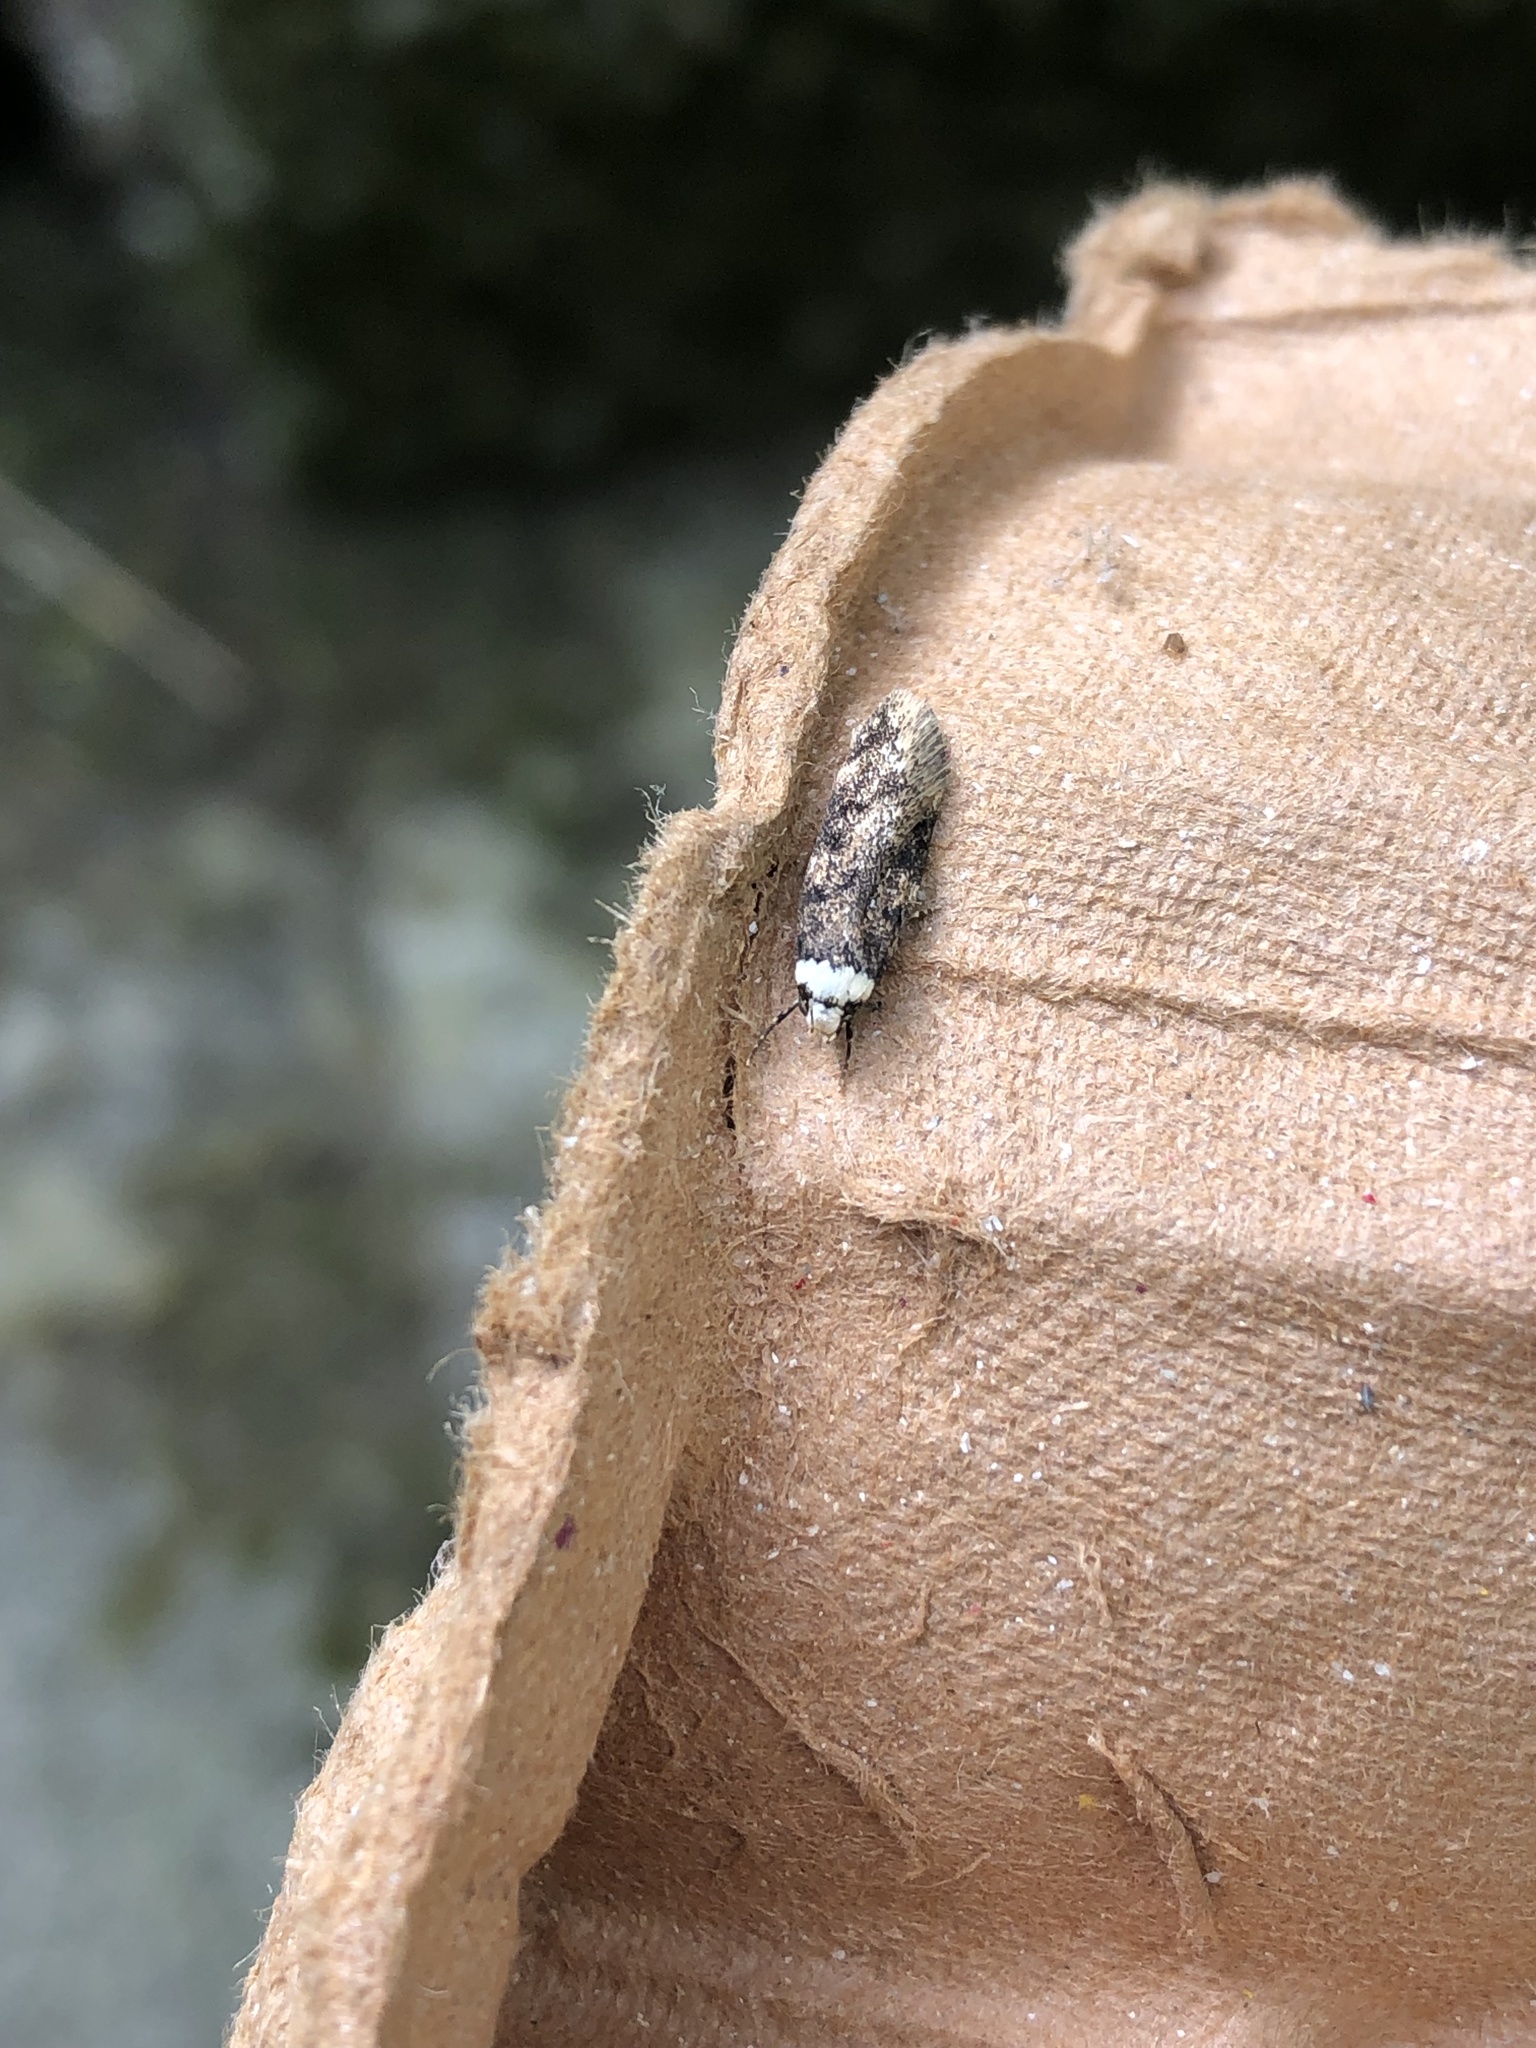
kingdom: Animalia
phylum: Arthropoda
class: Insecta
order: Lepidoptera
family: Oecophoridae
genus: Endrosis
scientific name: Endrosis sarcitrella
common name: White-shouldered house moth
